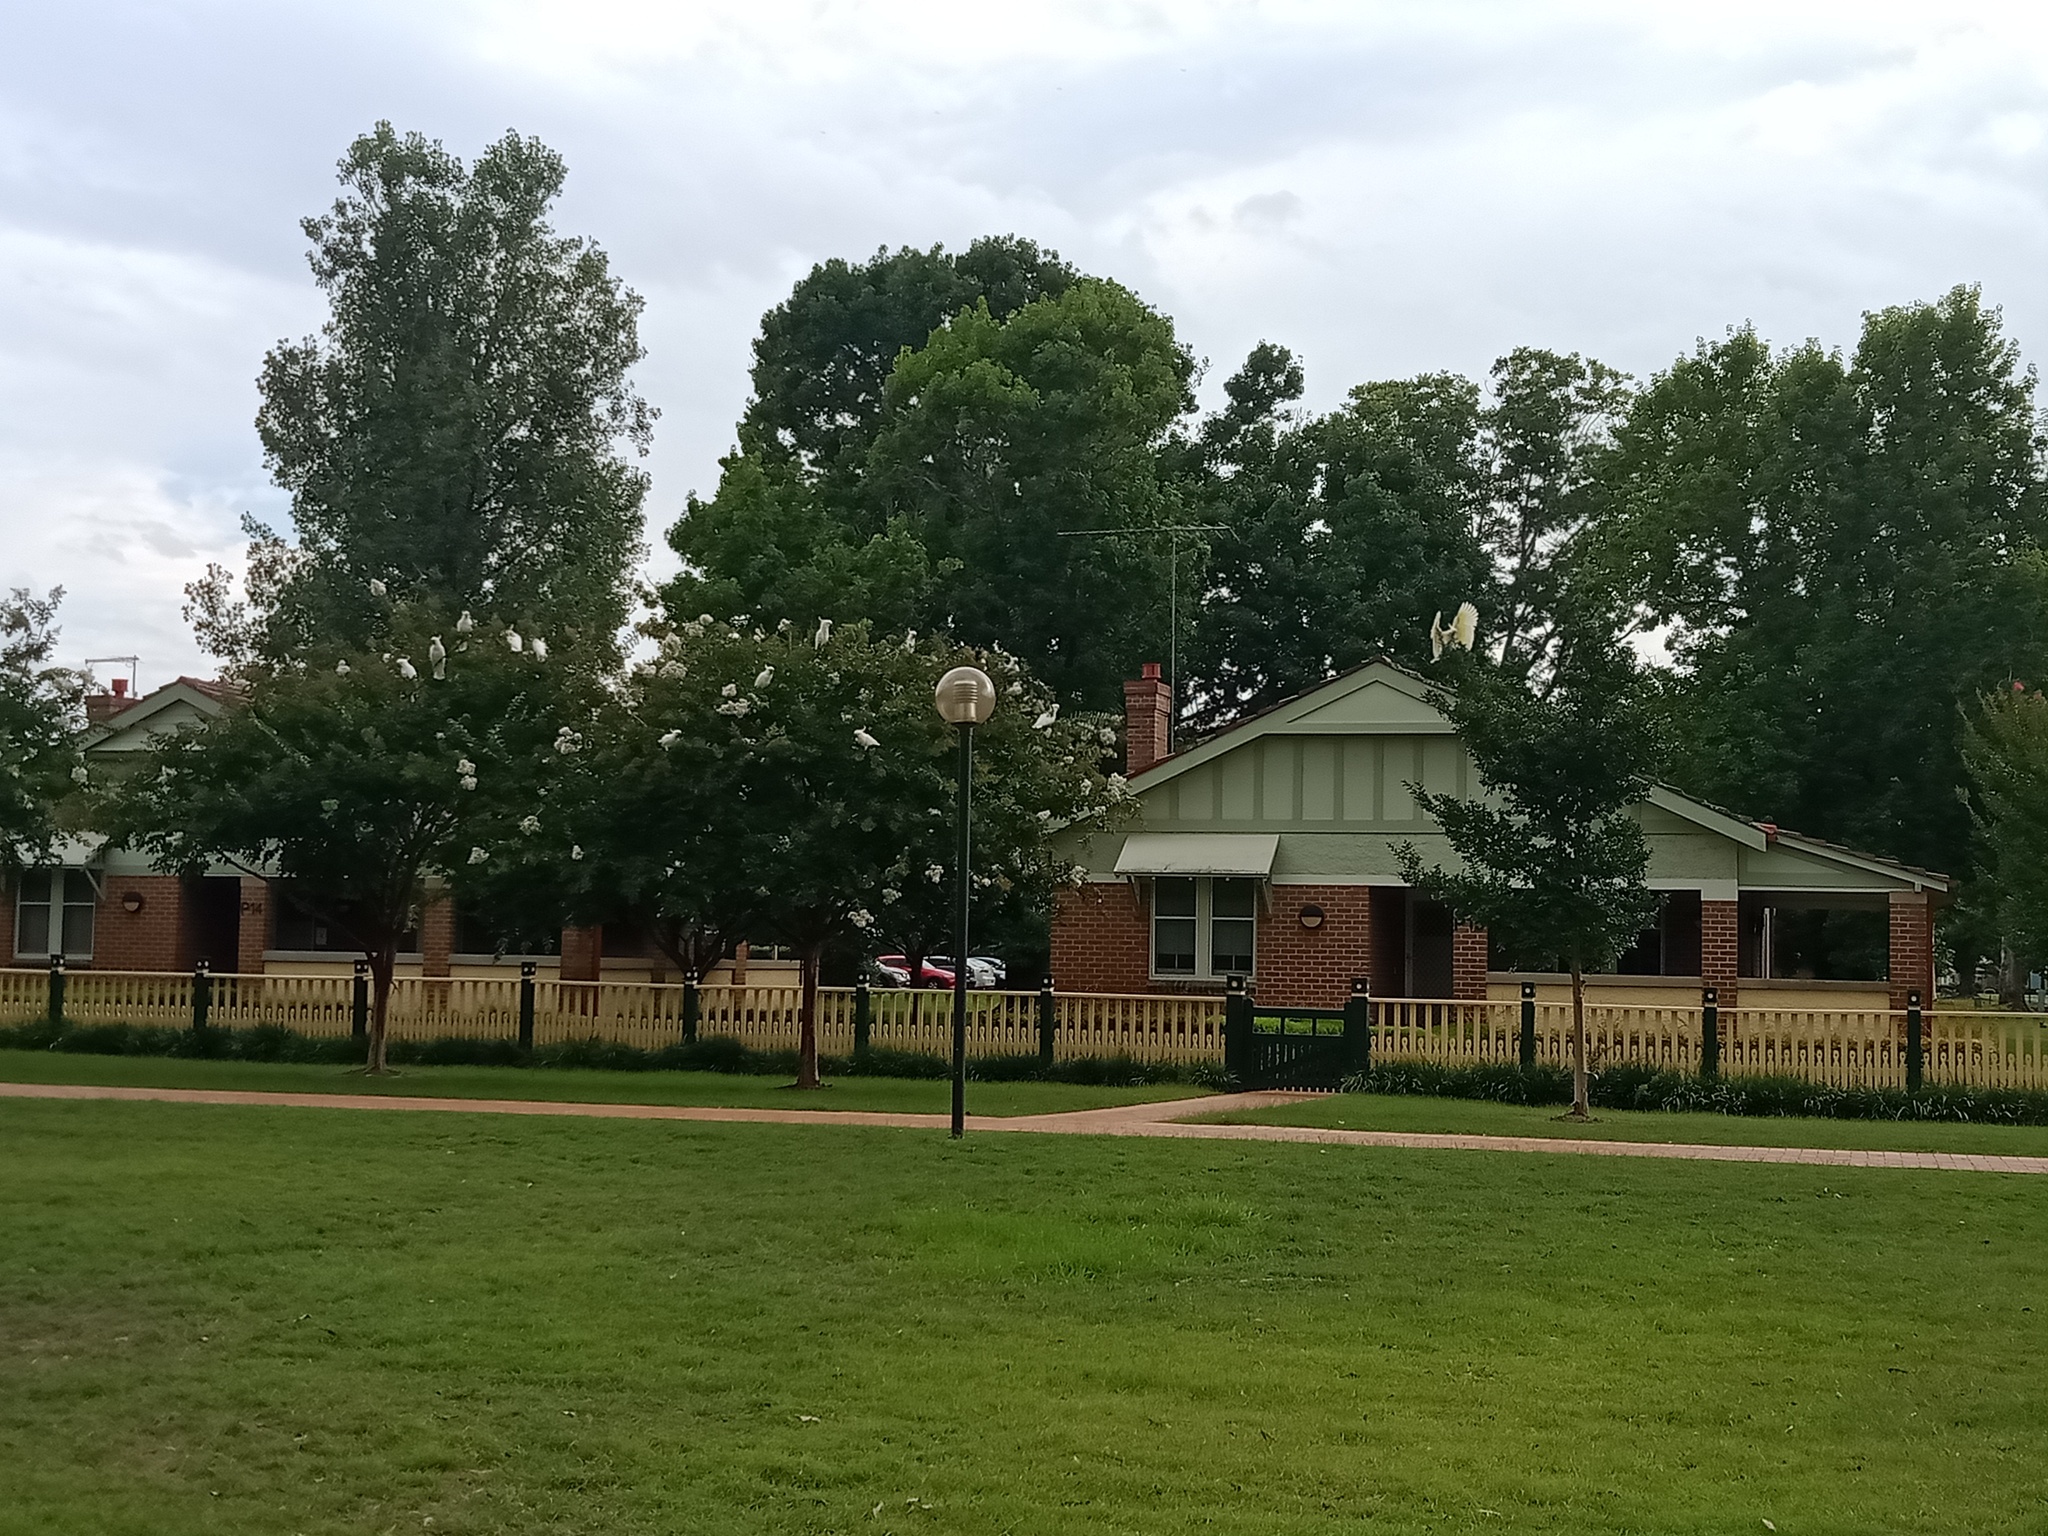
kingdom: Animalia
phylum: Chordata
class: Aves
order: Psittaciformes
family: Psittacidae
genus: Cacatua
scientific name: Cacatua galerita
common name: Sulphur-crested cockatoo
